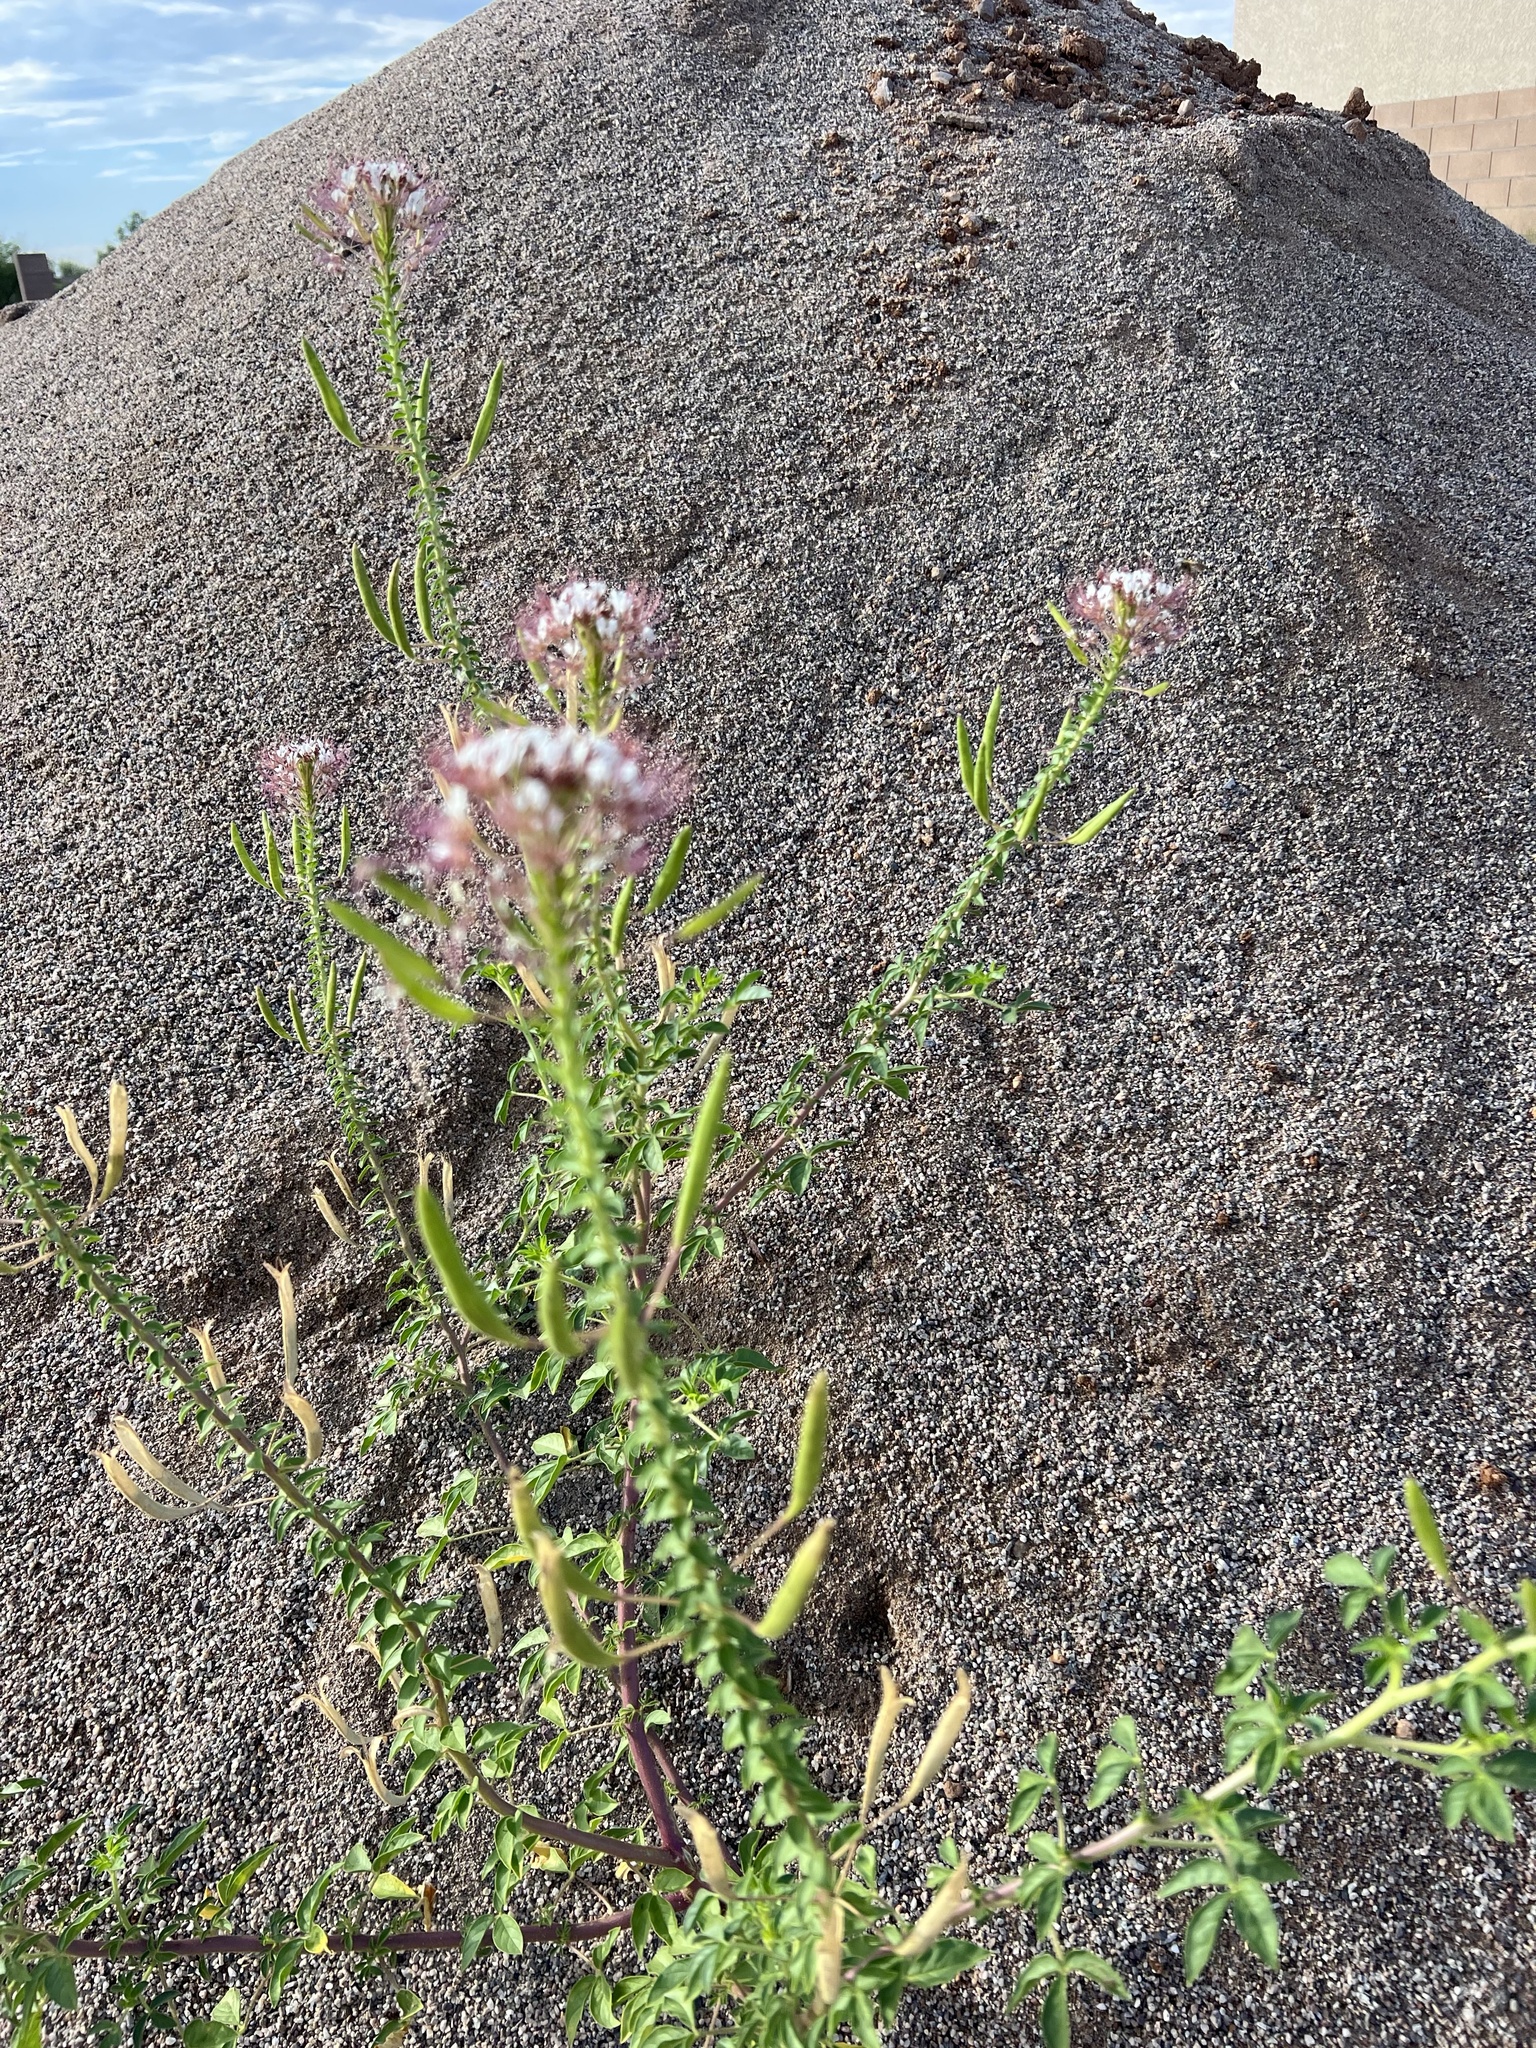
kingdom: Plantae
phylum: Tracheophyta
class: Magnoliopsida
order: Brassicales
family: Cleomaceae
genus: Polanisia
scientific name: Polanisia dodecandra
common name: Clammyweed
